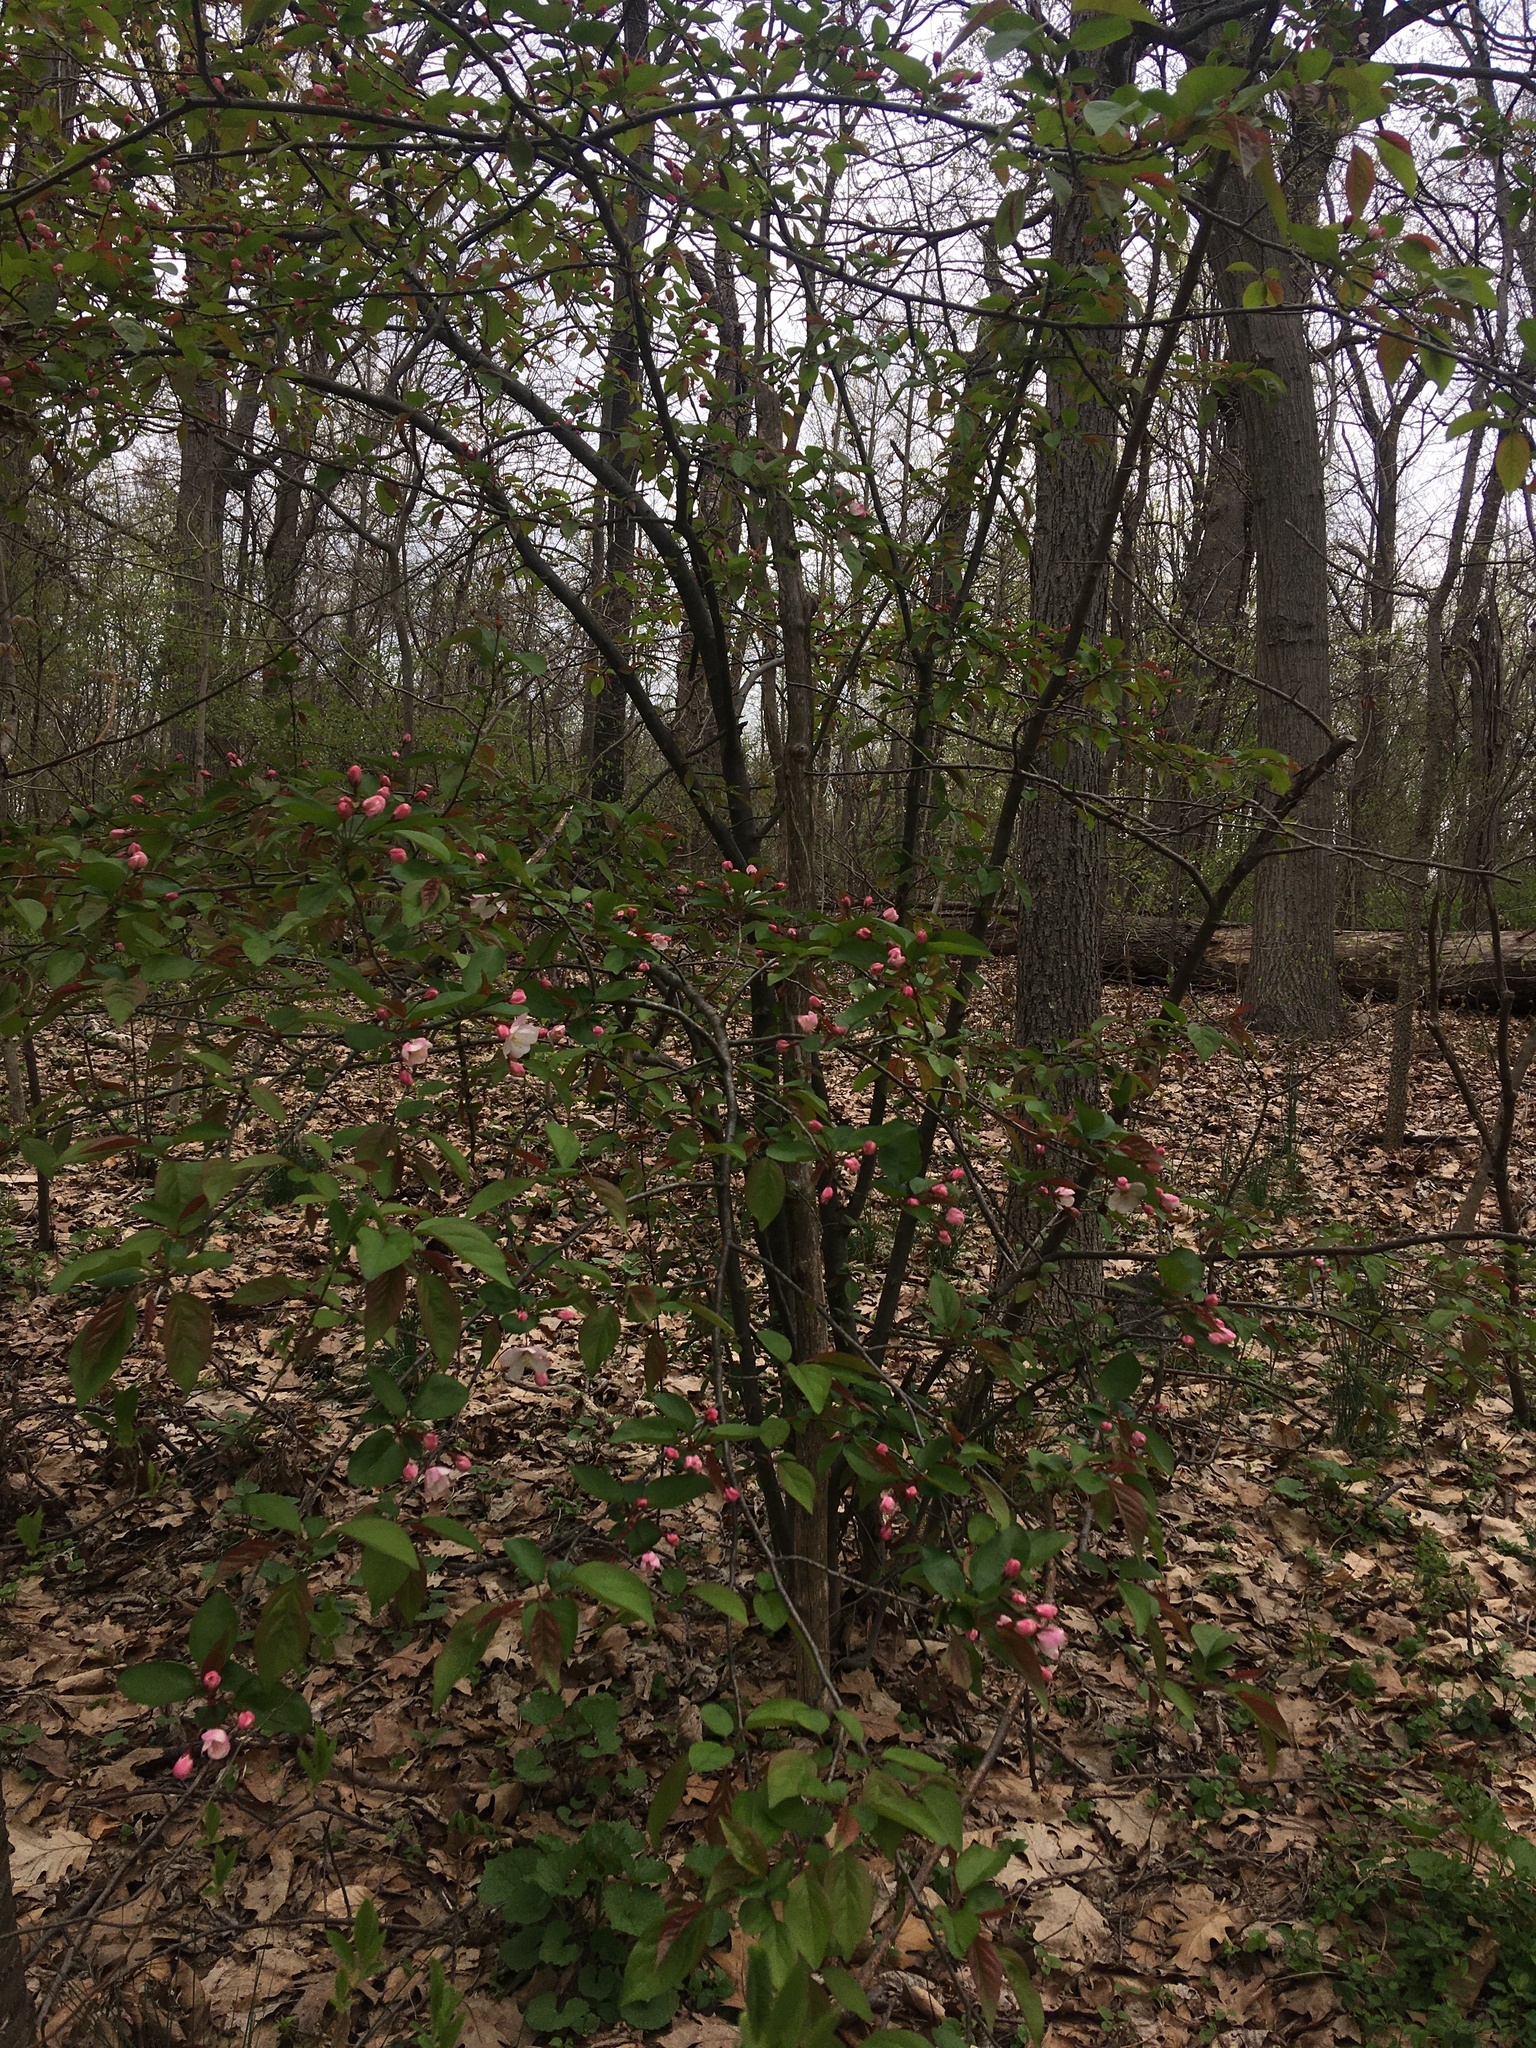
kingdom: Plantae
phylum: Tracheophyta
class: Magnoliopsida
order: Rosales
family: Rosaceae
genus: Malus
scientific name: Malus hupehensis
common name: Chinese crab apple
